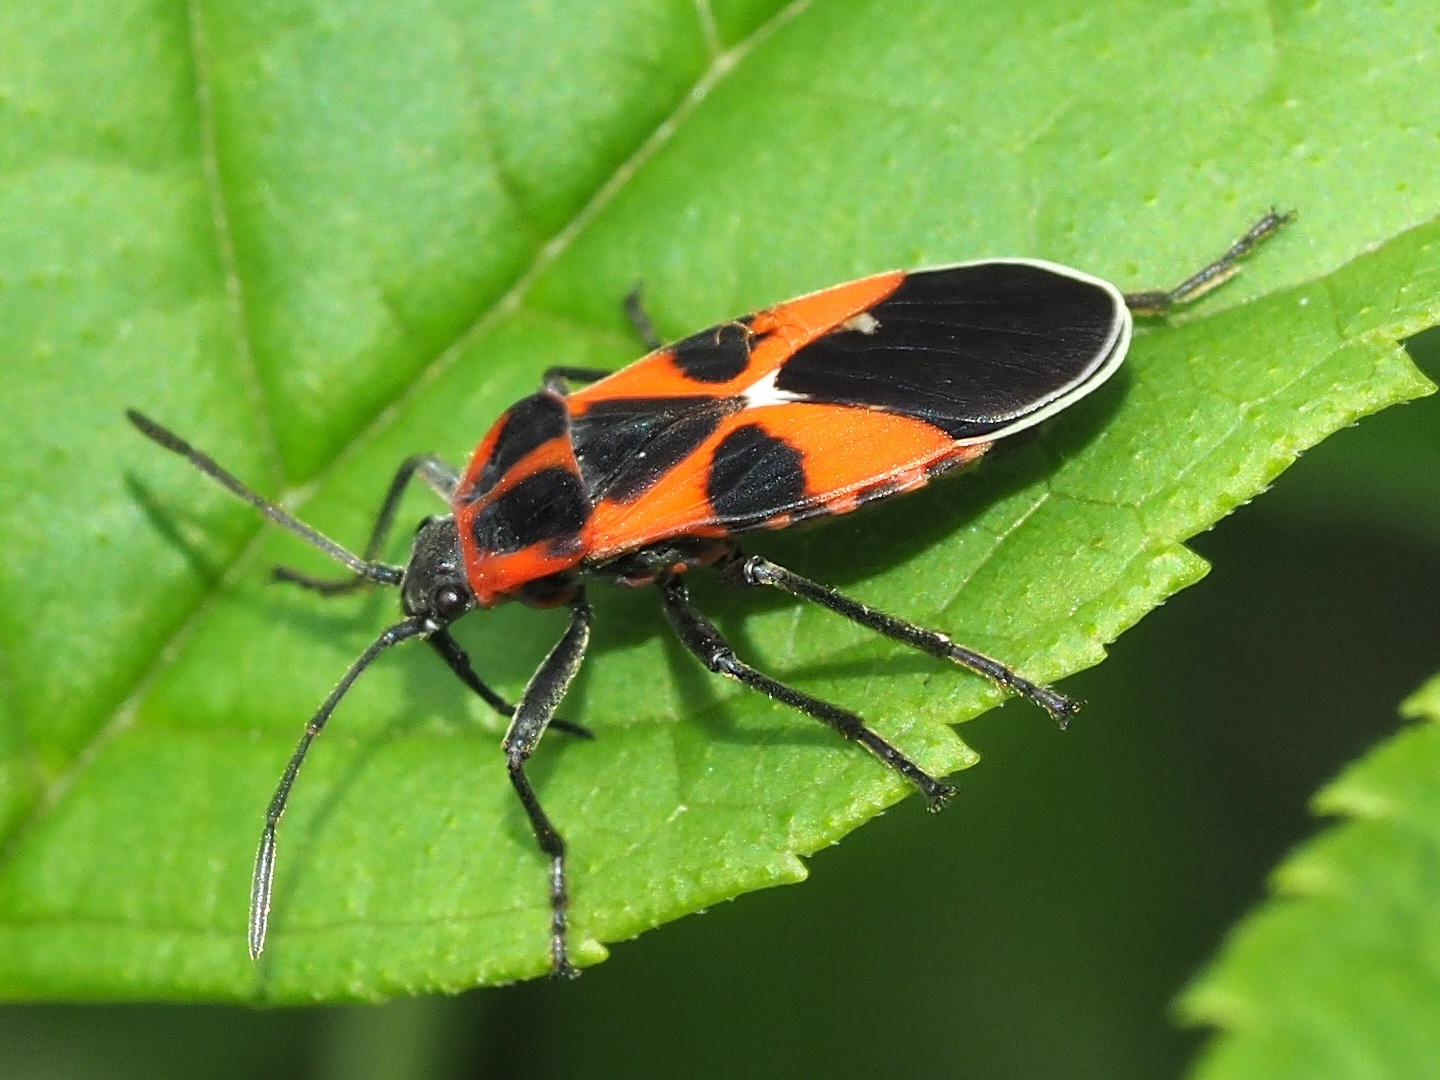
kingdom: Animalia
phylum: Arthropoda
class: Insecta
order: Hemiptera
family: Lygaeidae
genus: Tropidothorax
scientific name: Tropidothorax leucopterus
